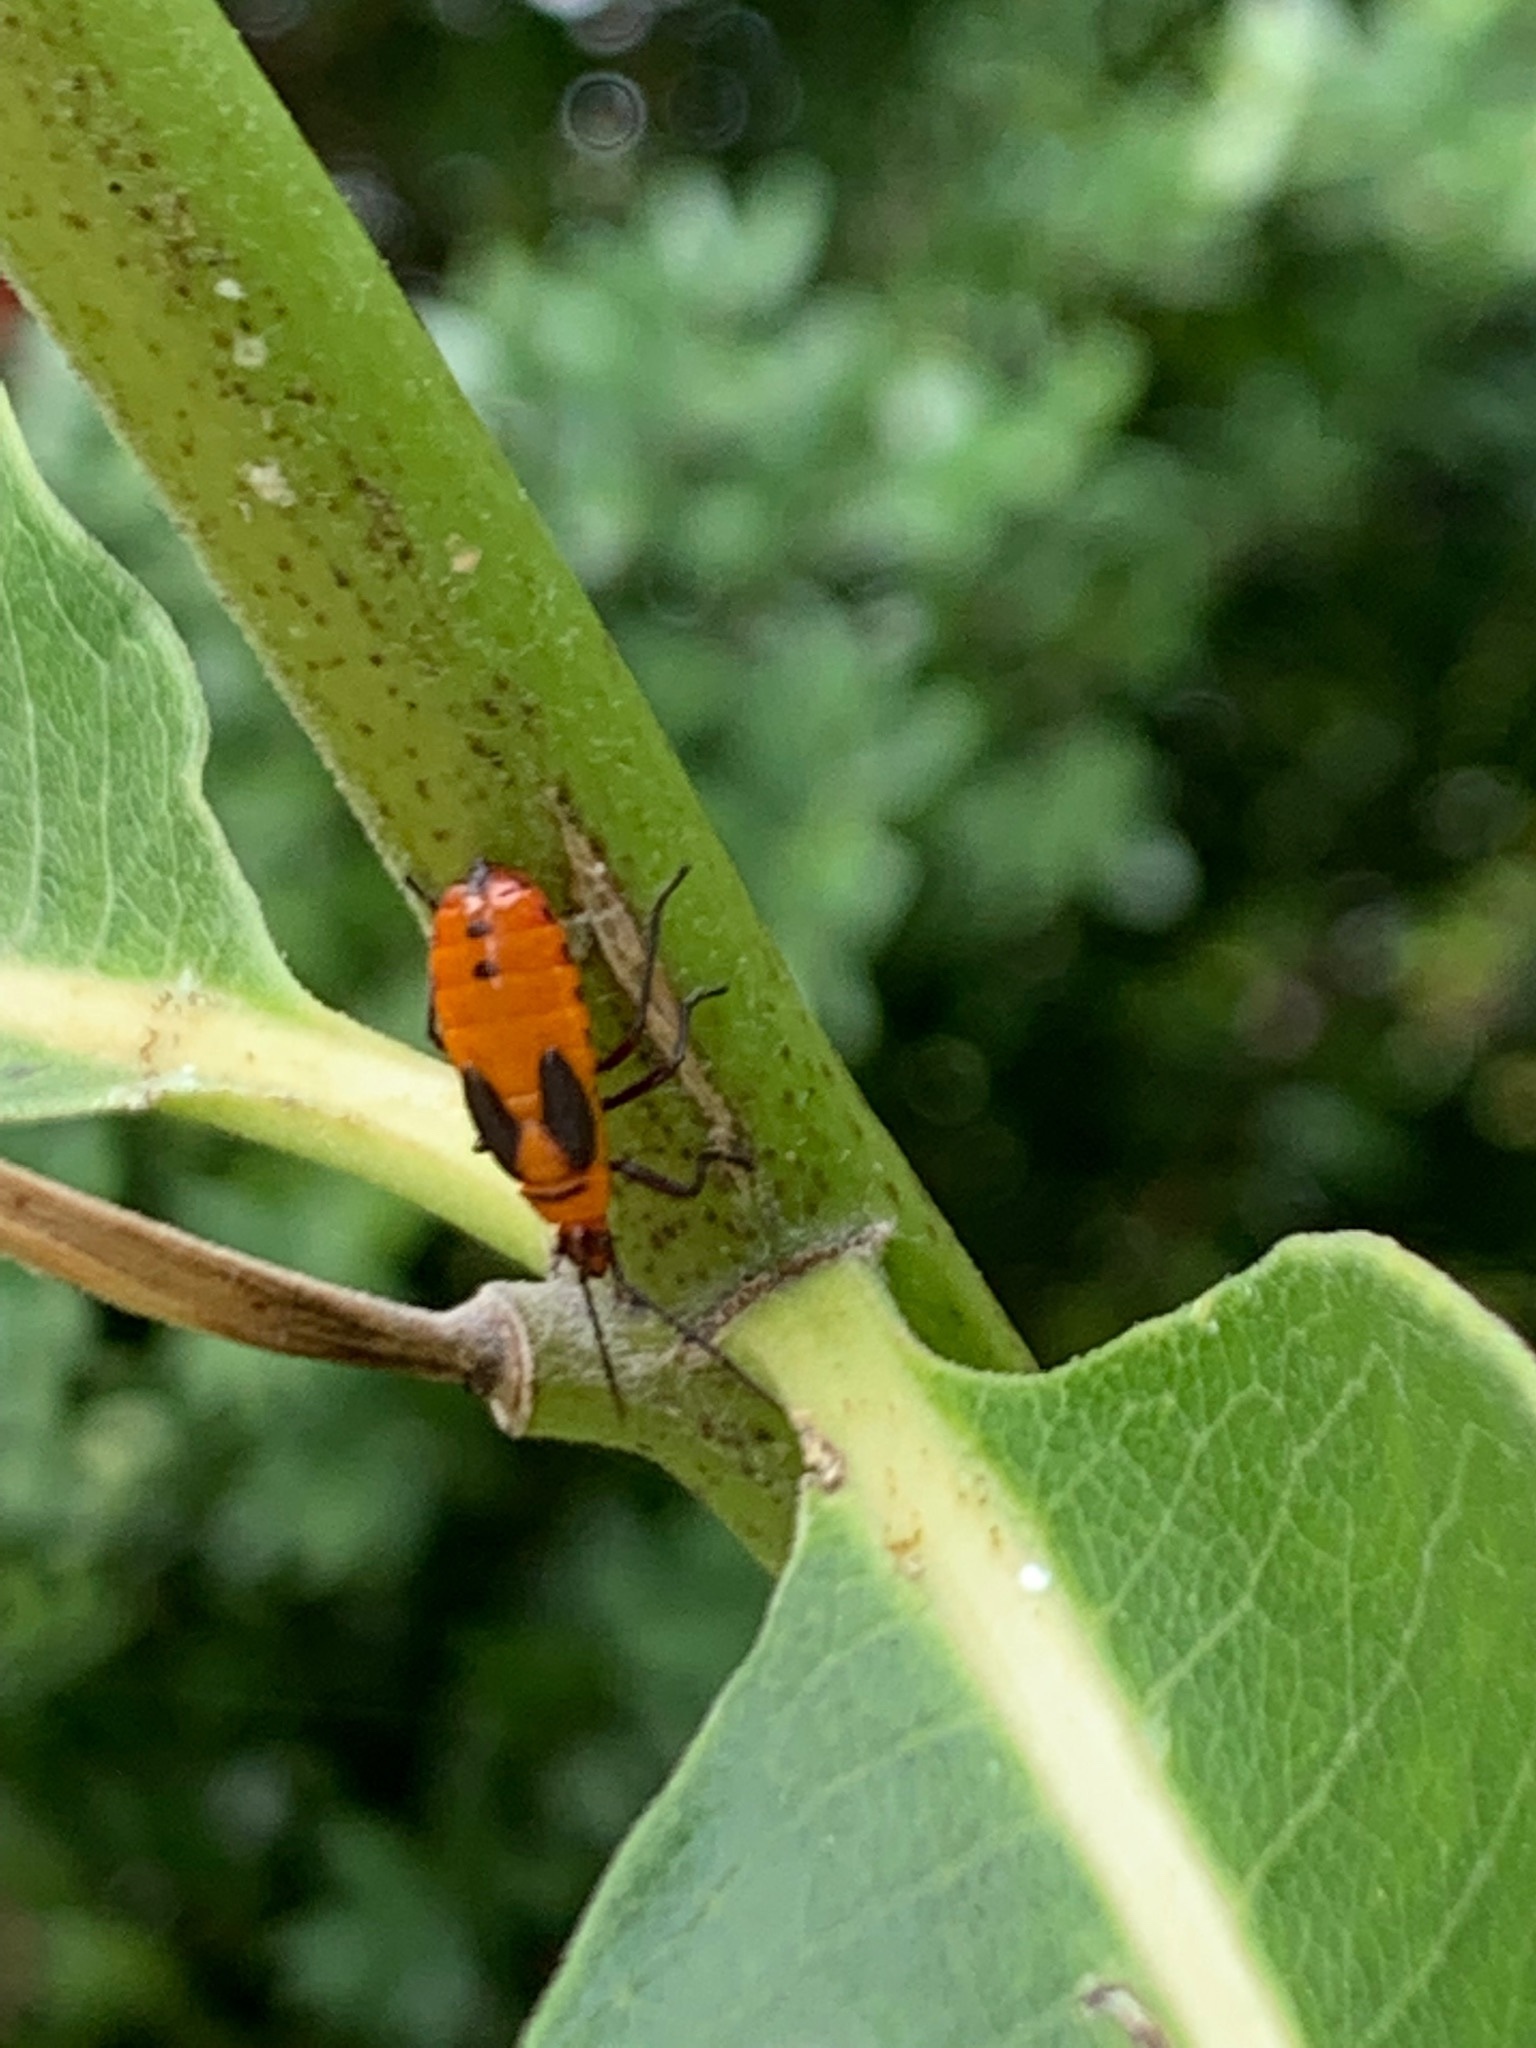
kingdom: Animalia
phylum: Arthropoda
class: Insecta
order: Hemiptera
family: Lygaeidae
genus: Oncopeltus
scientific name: Oncopeltus fasciatus
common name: Large milkweed bug
